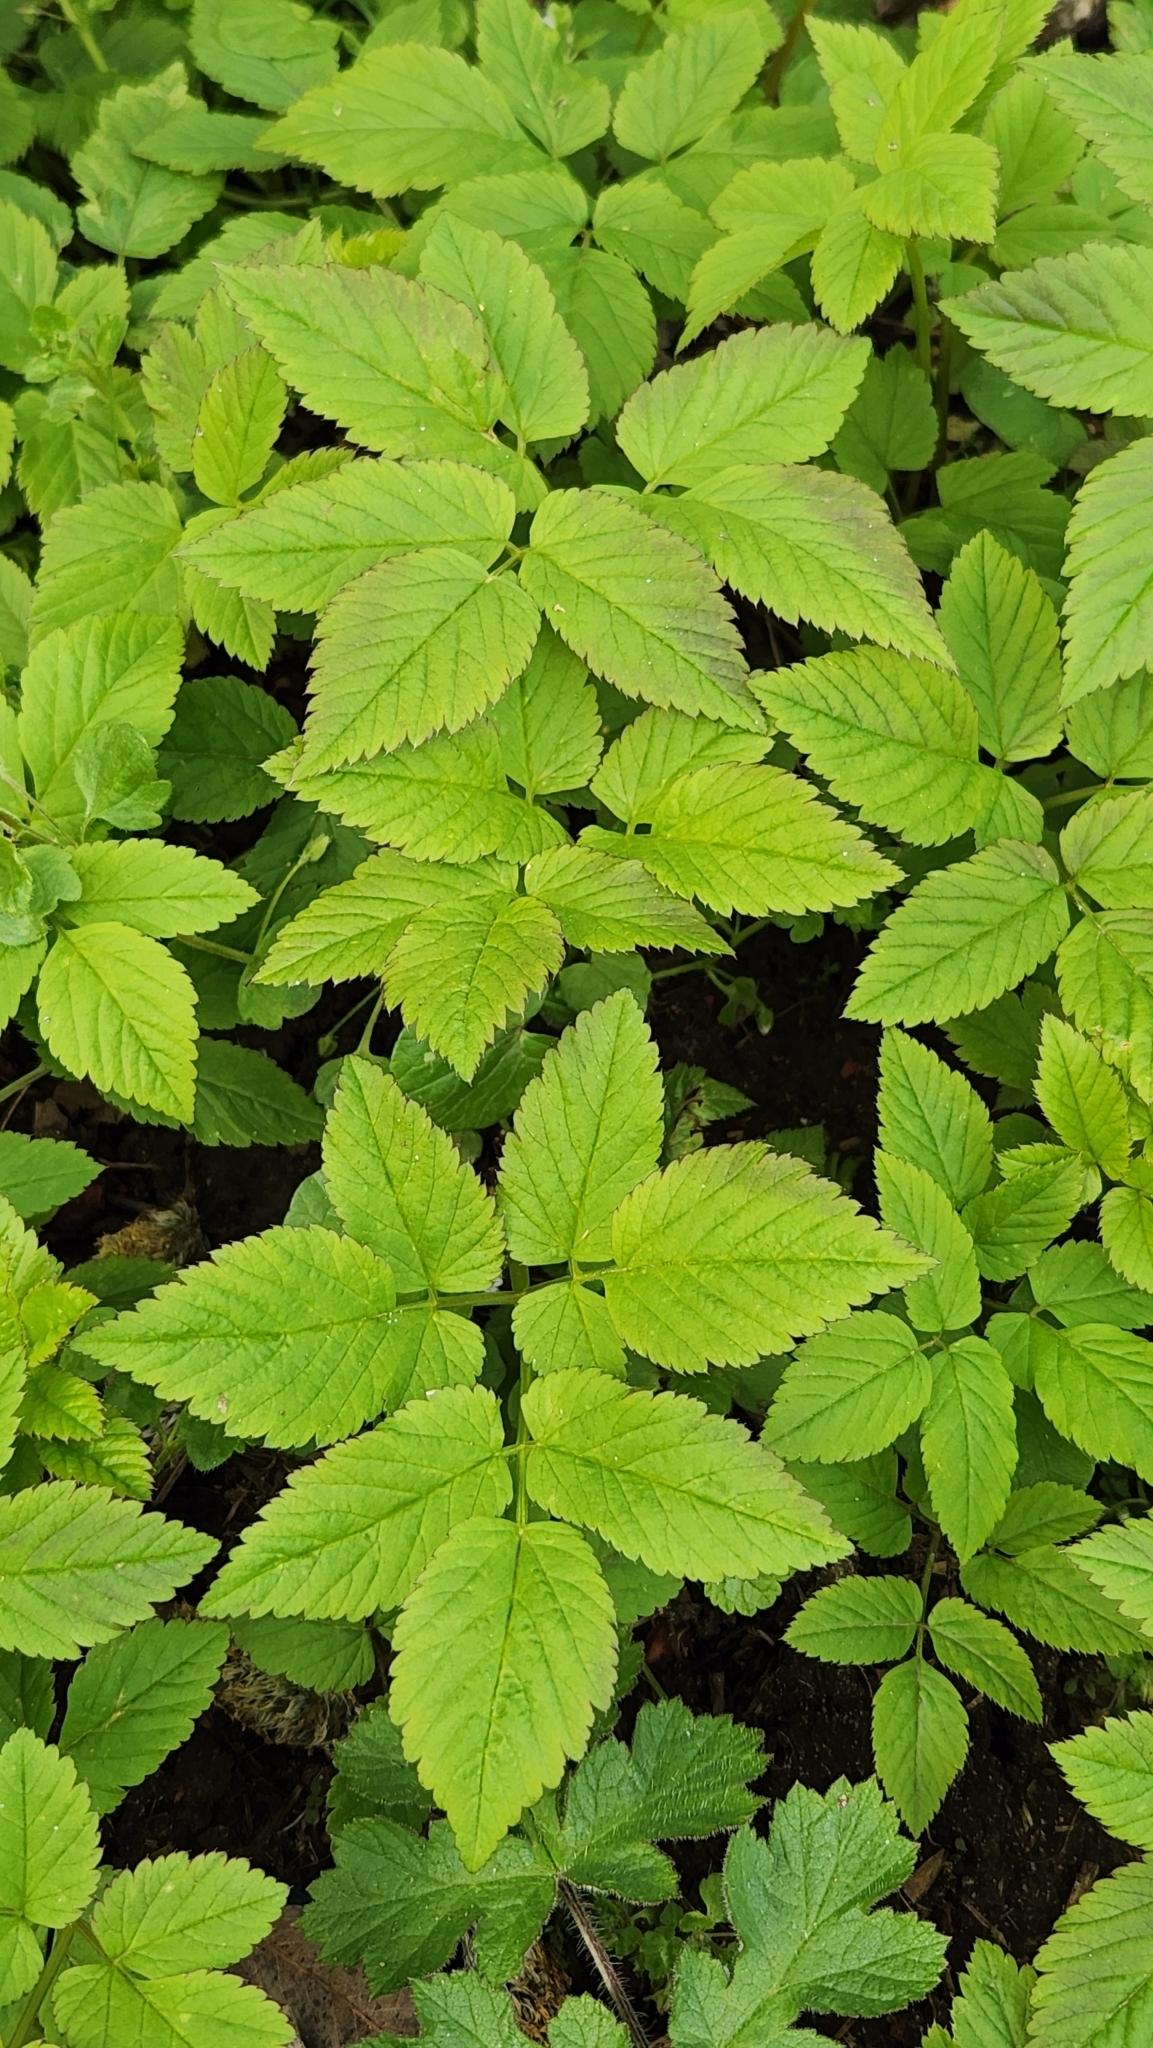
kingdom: Plantae
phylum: Tracheophyta
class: Magnoliopsida
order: Apiales
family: Apiaceae
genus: Aegopodium
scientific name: Aegopodium podagraria
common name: Ground-elder
